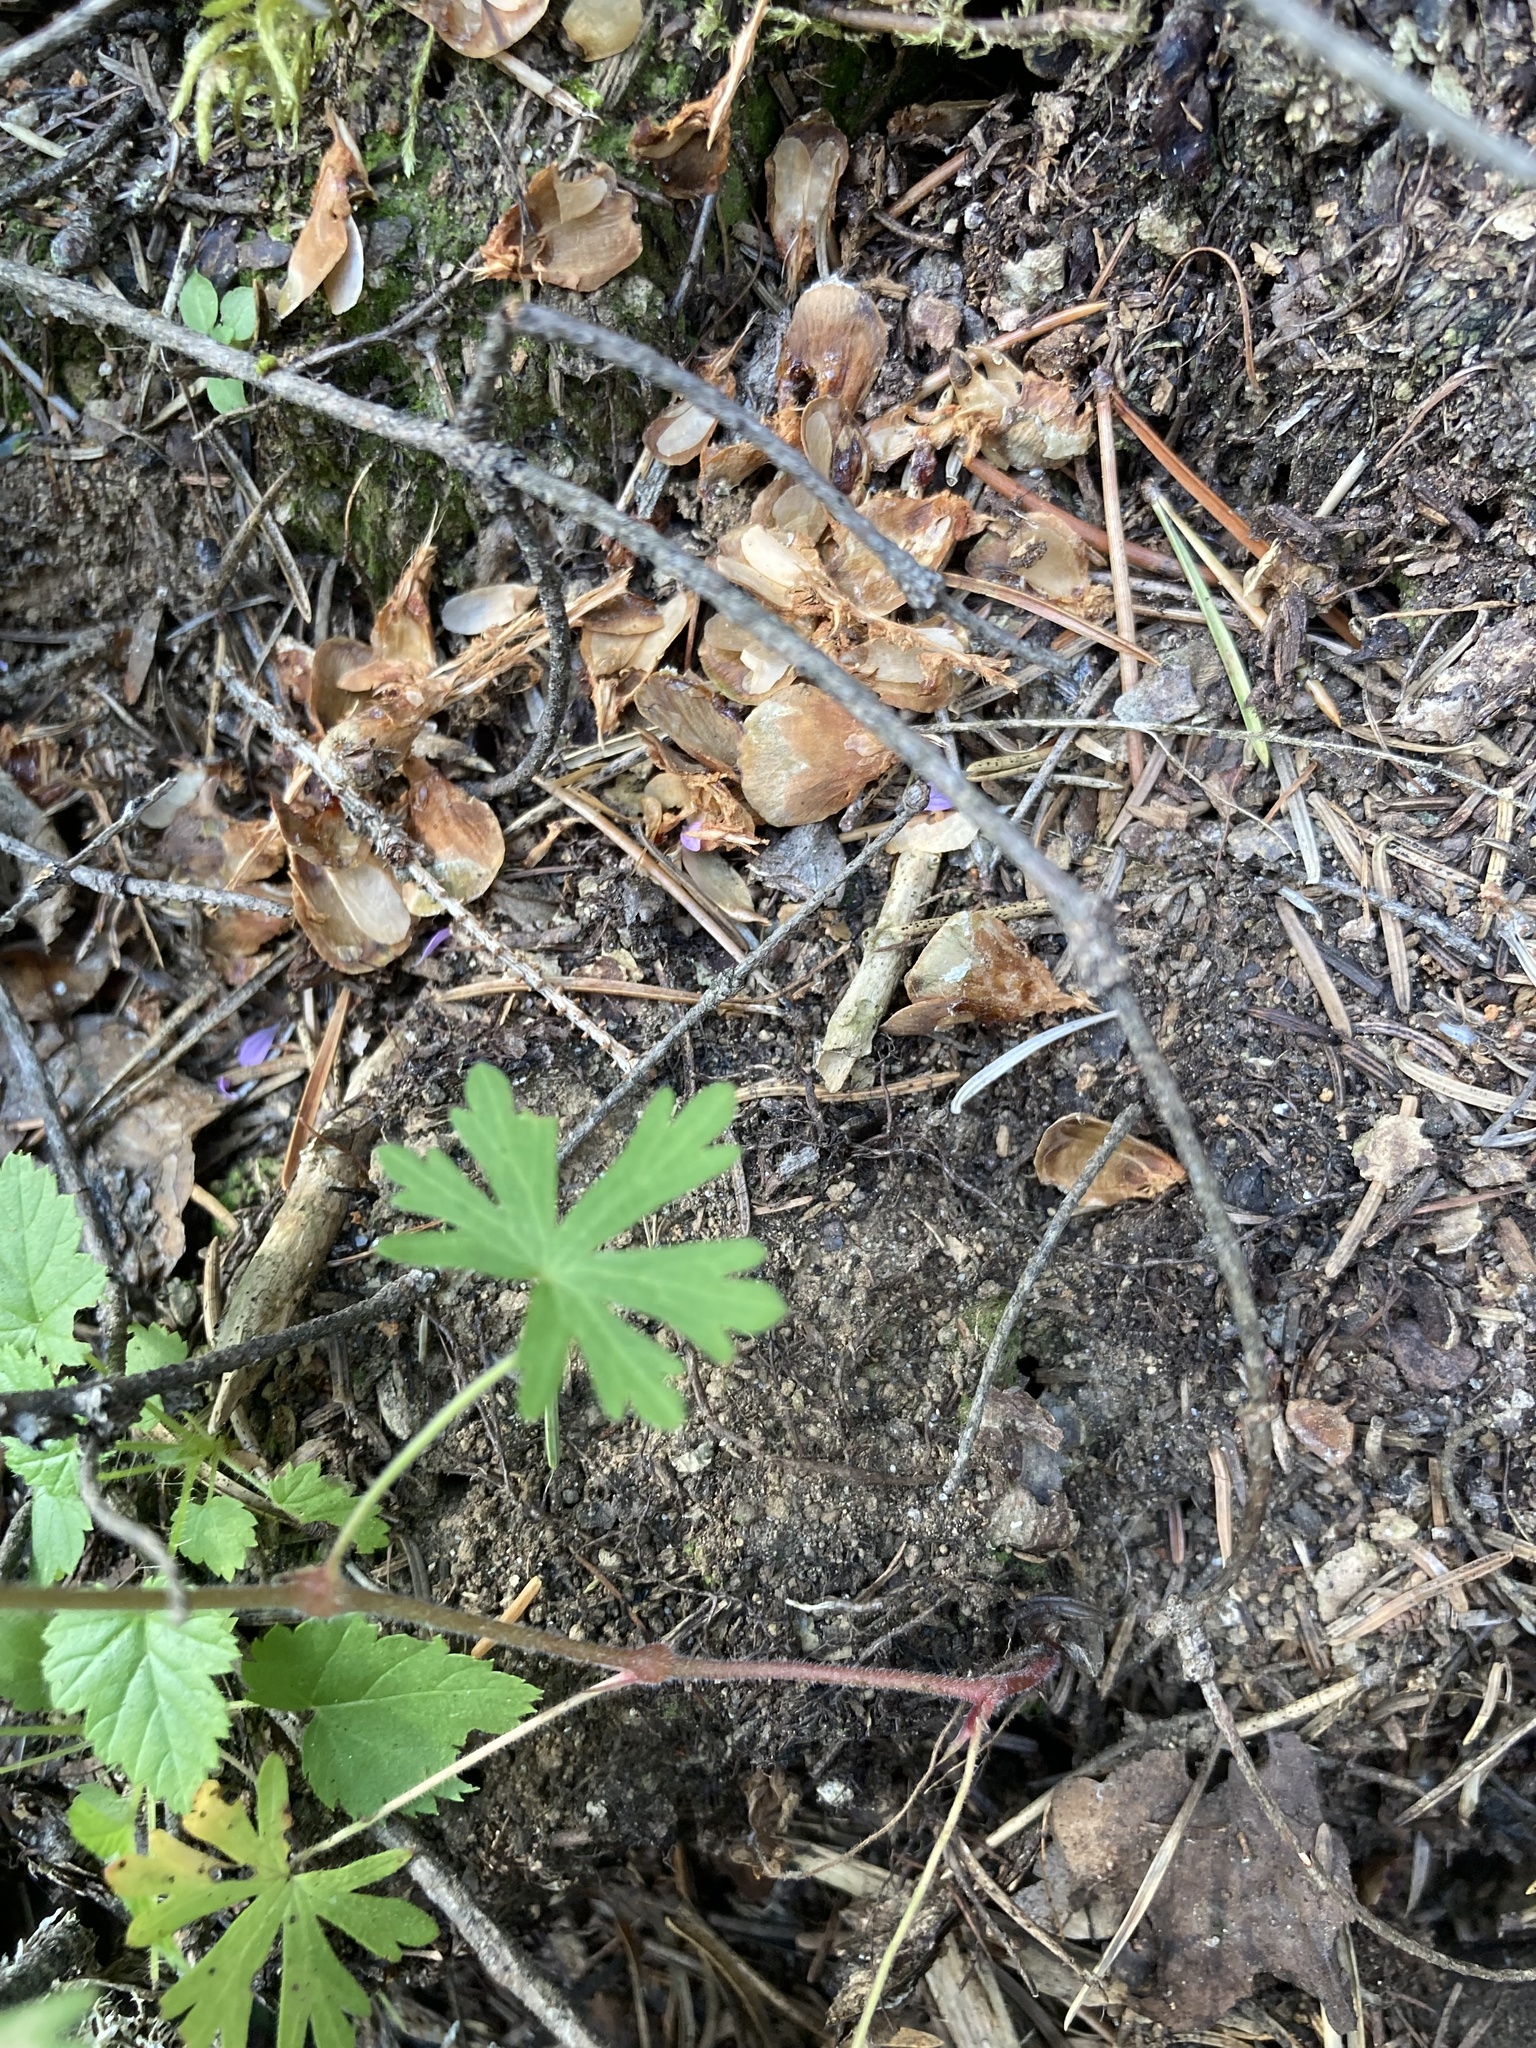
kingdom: Plantae
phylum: Tracheophyta
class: Magnoliopsida
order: Geraniales
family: Geraniaceae
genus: Geranium
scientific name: Geranium bicknellii
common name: Bicknell's cranesbill
